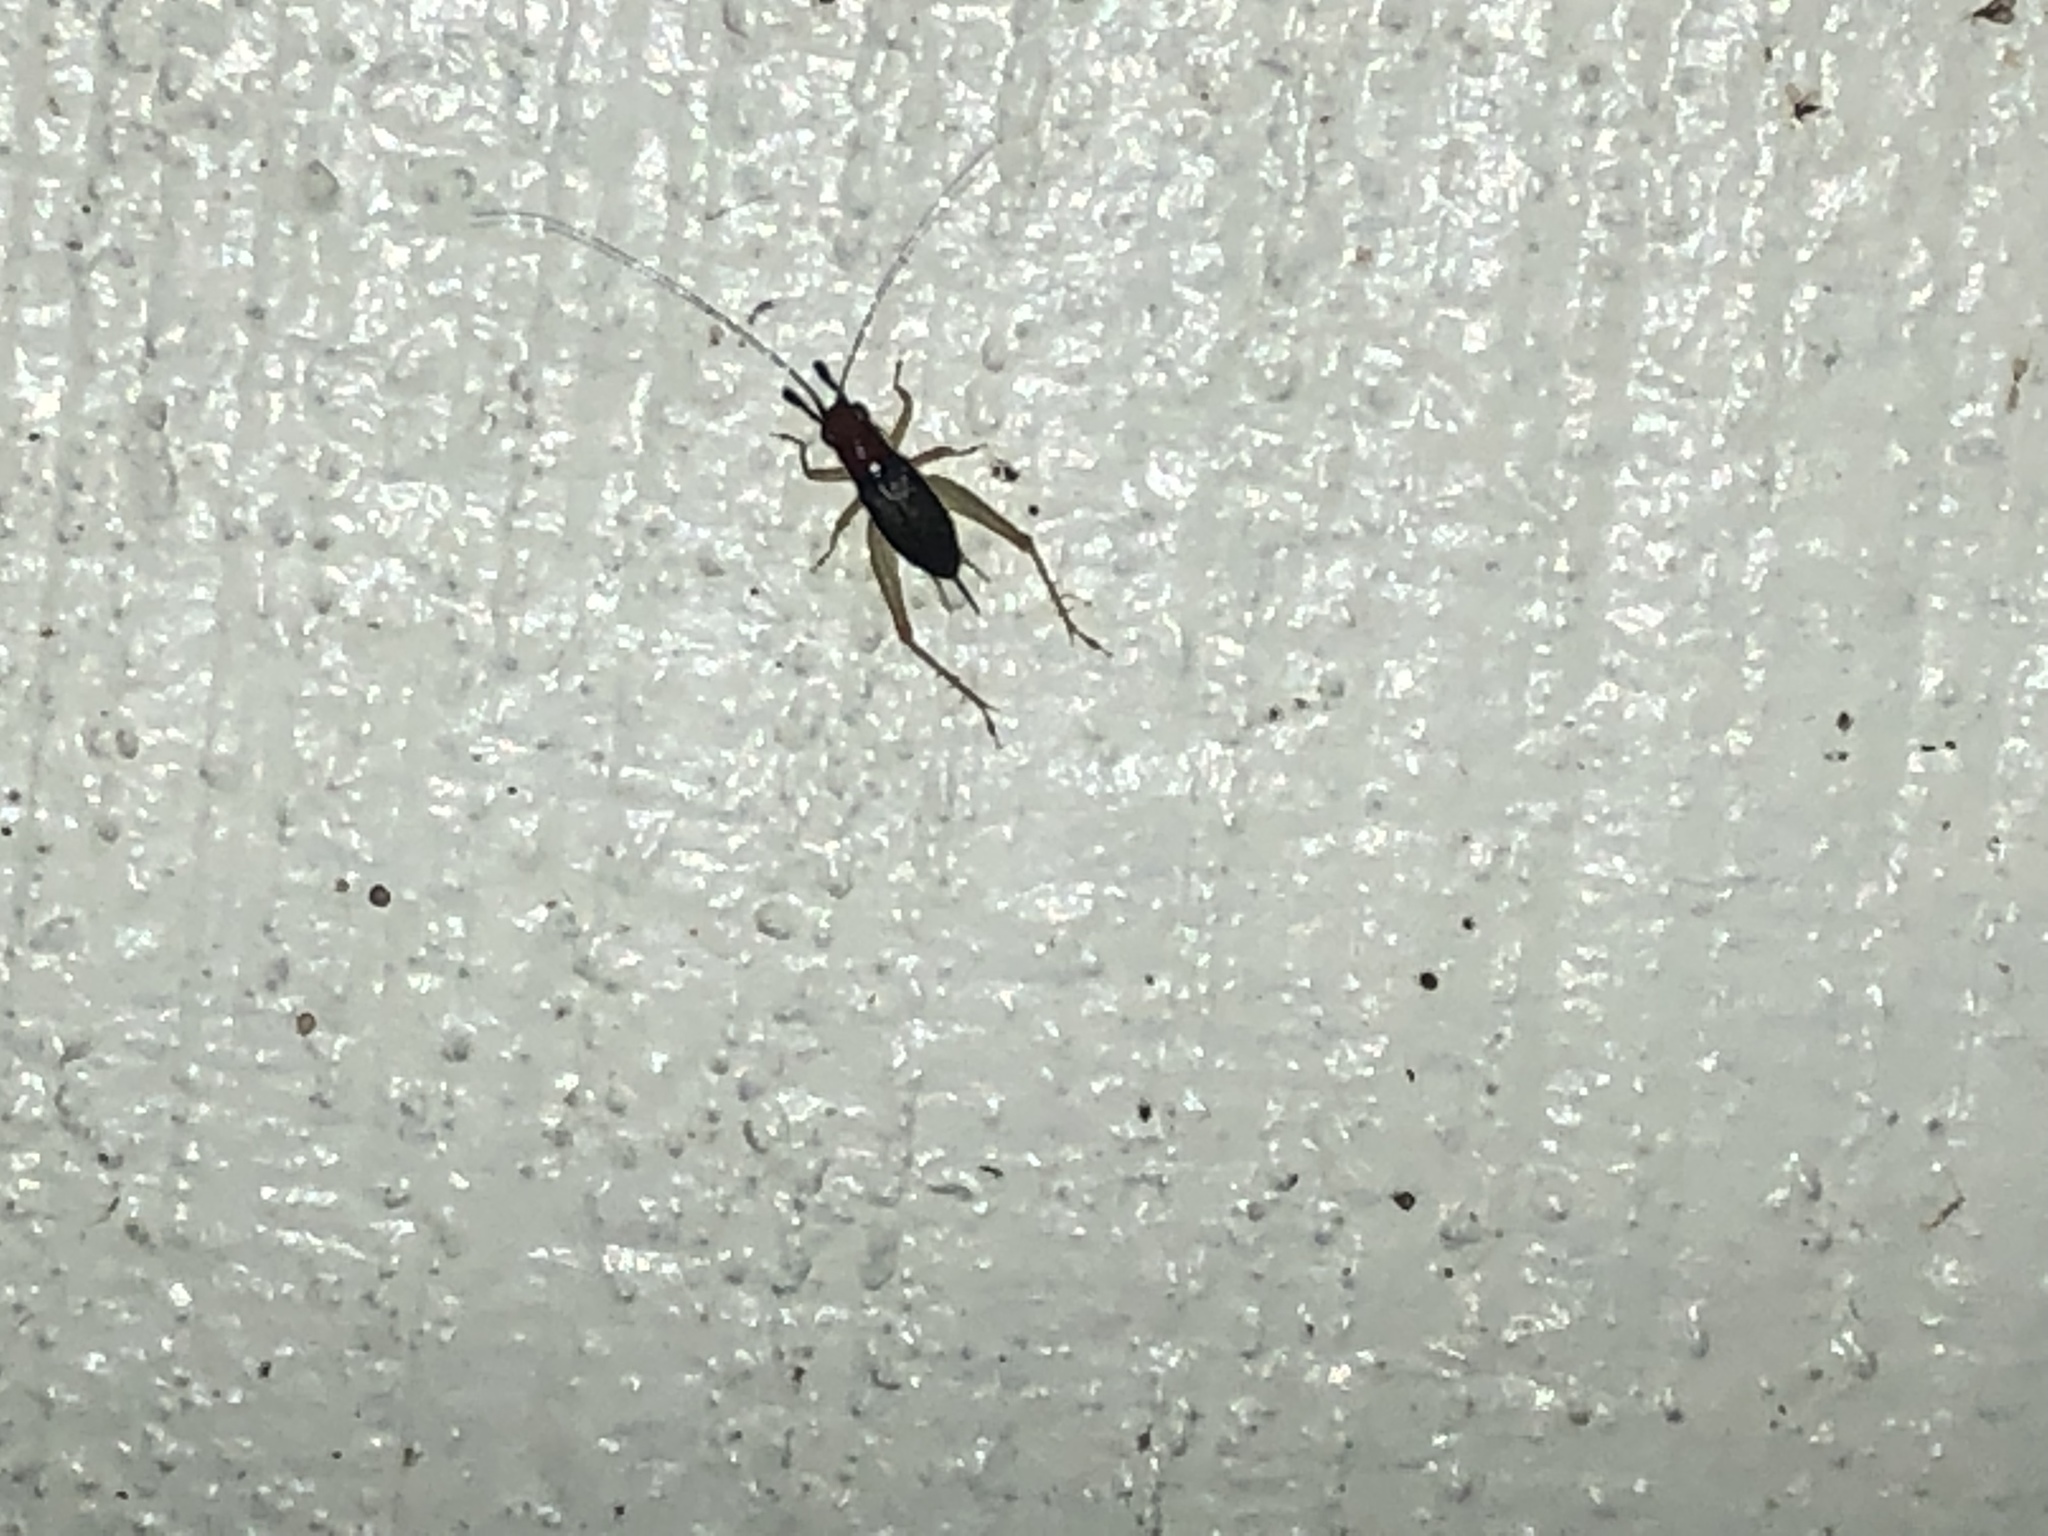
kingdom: Animalia
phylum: Arthropoda
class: Insecta
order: Orthoptera
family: Trigonidiidae
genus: Phyllopalpus
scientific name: Phyllopalpus pulchellus
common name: Handsome trig
